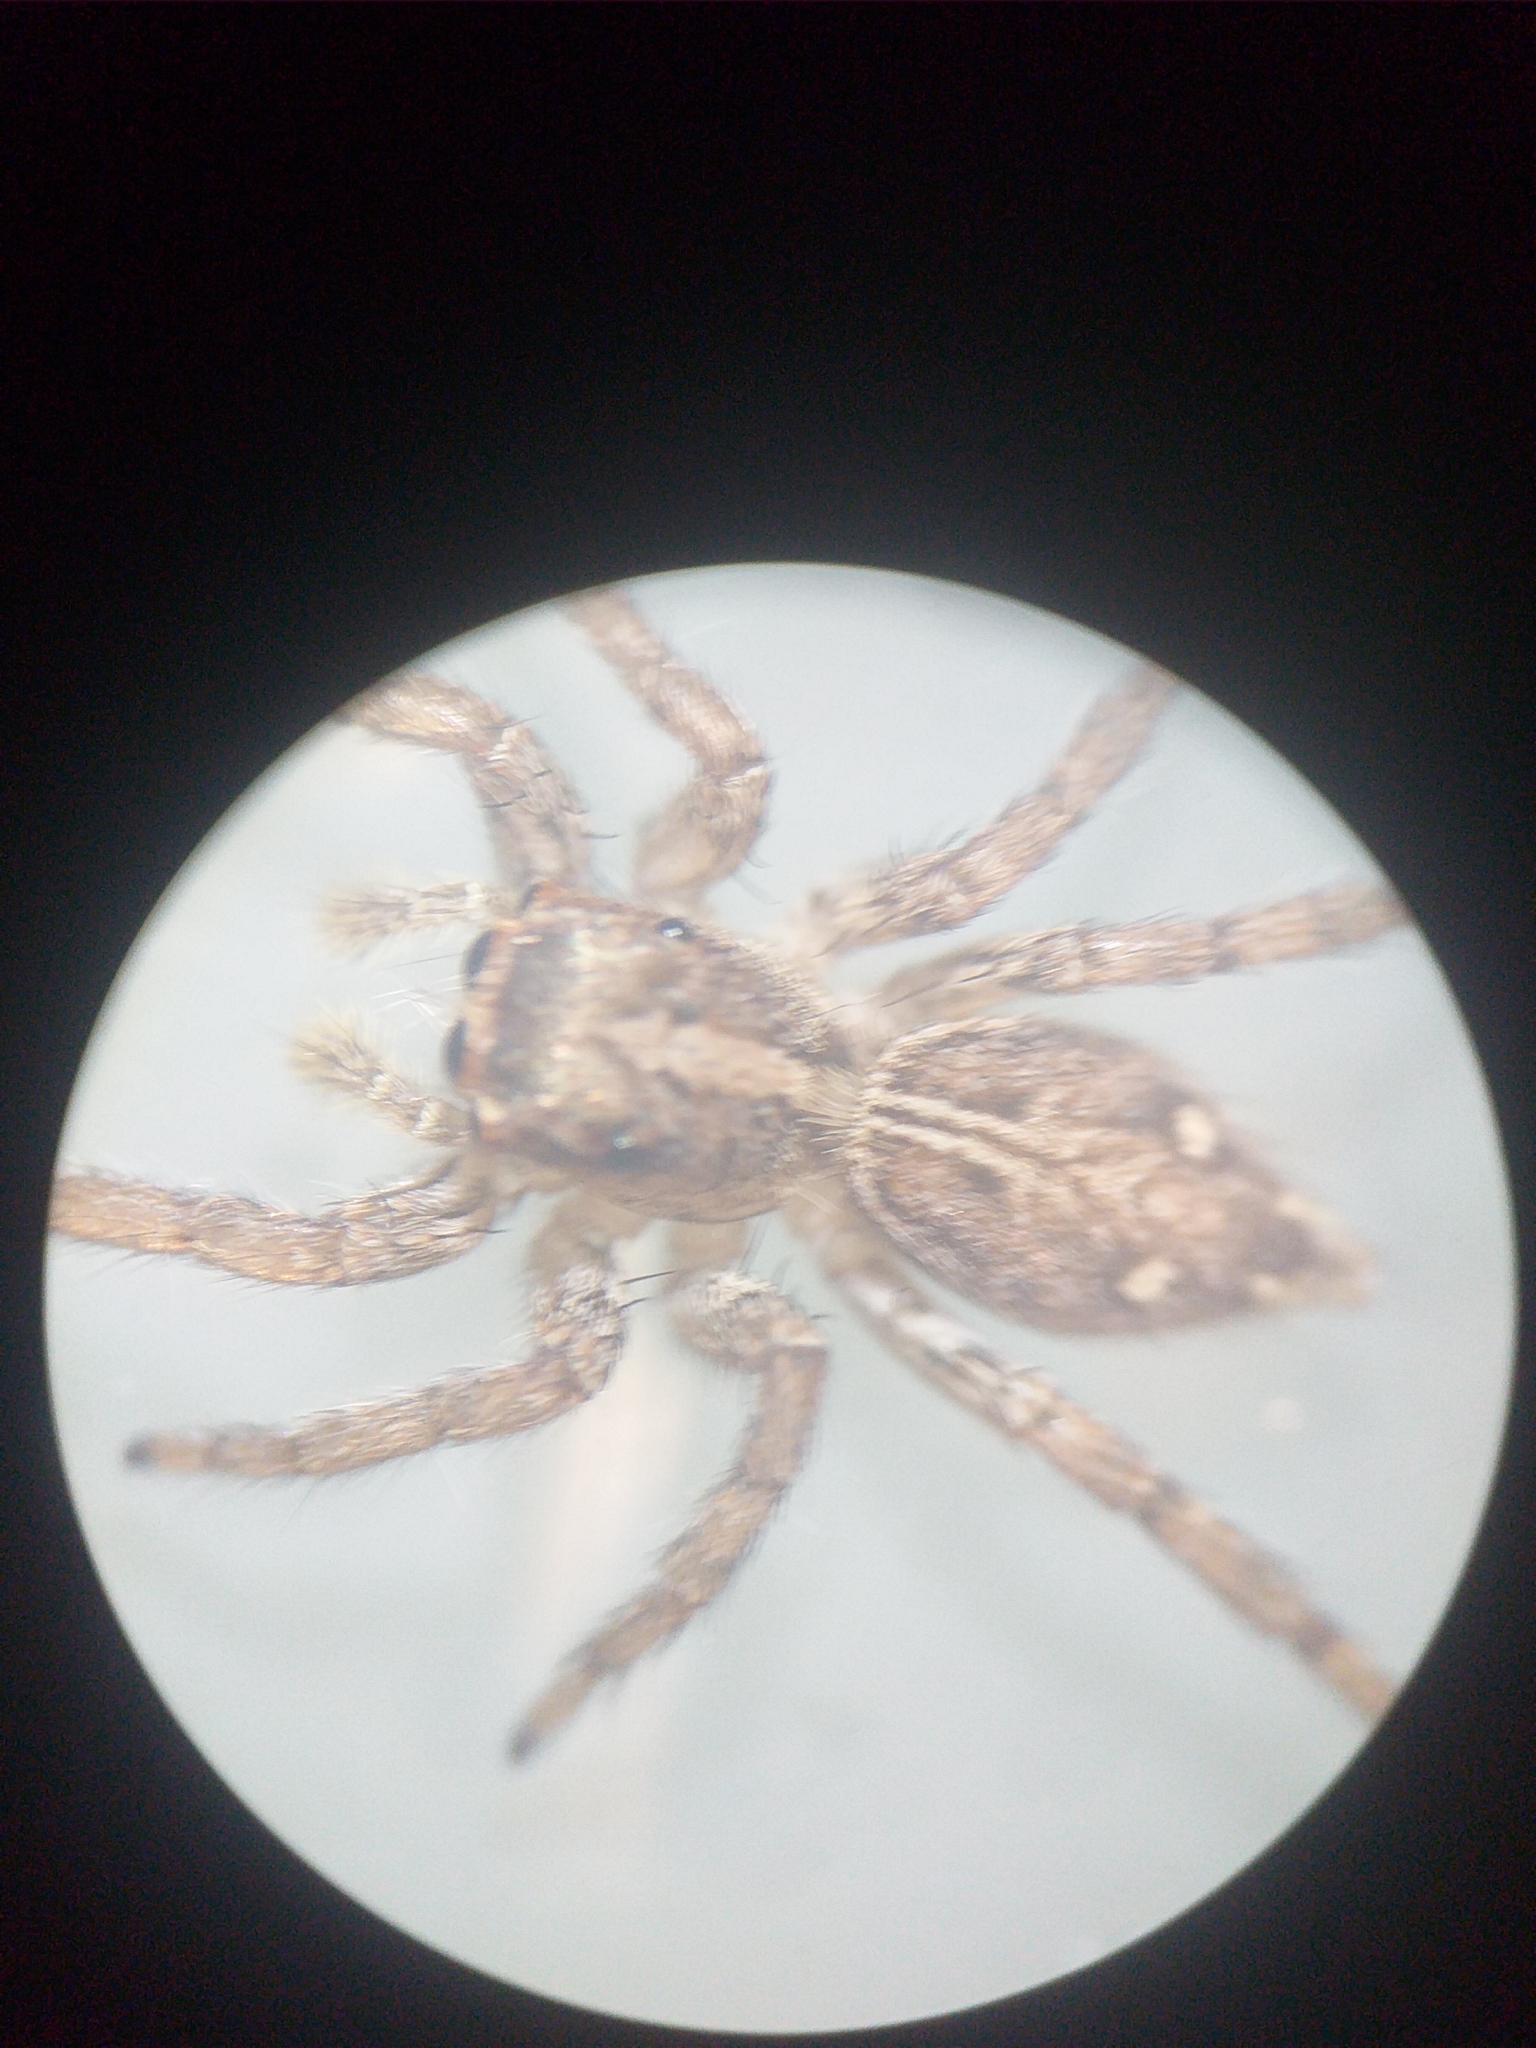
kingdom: Animalia
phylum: Arthropoda
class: Arachnida
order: Araneae
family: Salticidae
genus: Plexippus
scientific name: Plexippus paykulli
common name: Pantropical jumper
